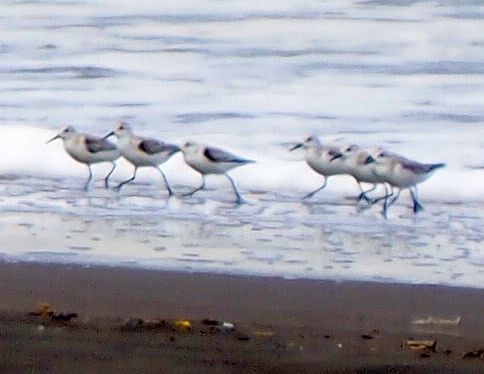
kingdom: Animalia
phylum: Chordata
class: Aves
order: Charadriiformes
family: Scolopacidae
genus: Calidris
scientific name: Calidris alba
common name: Sanderling
